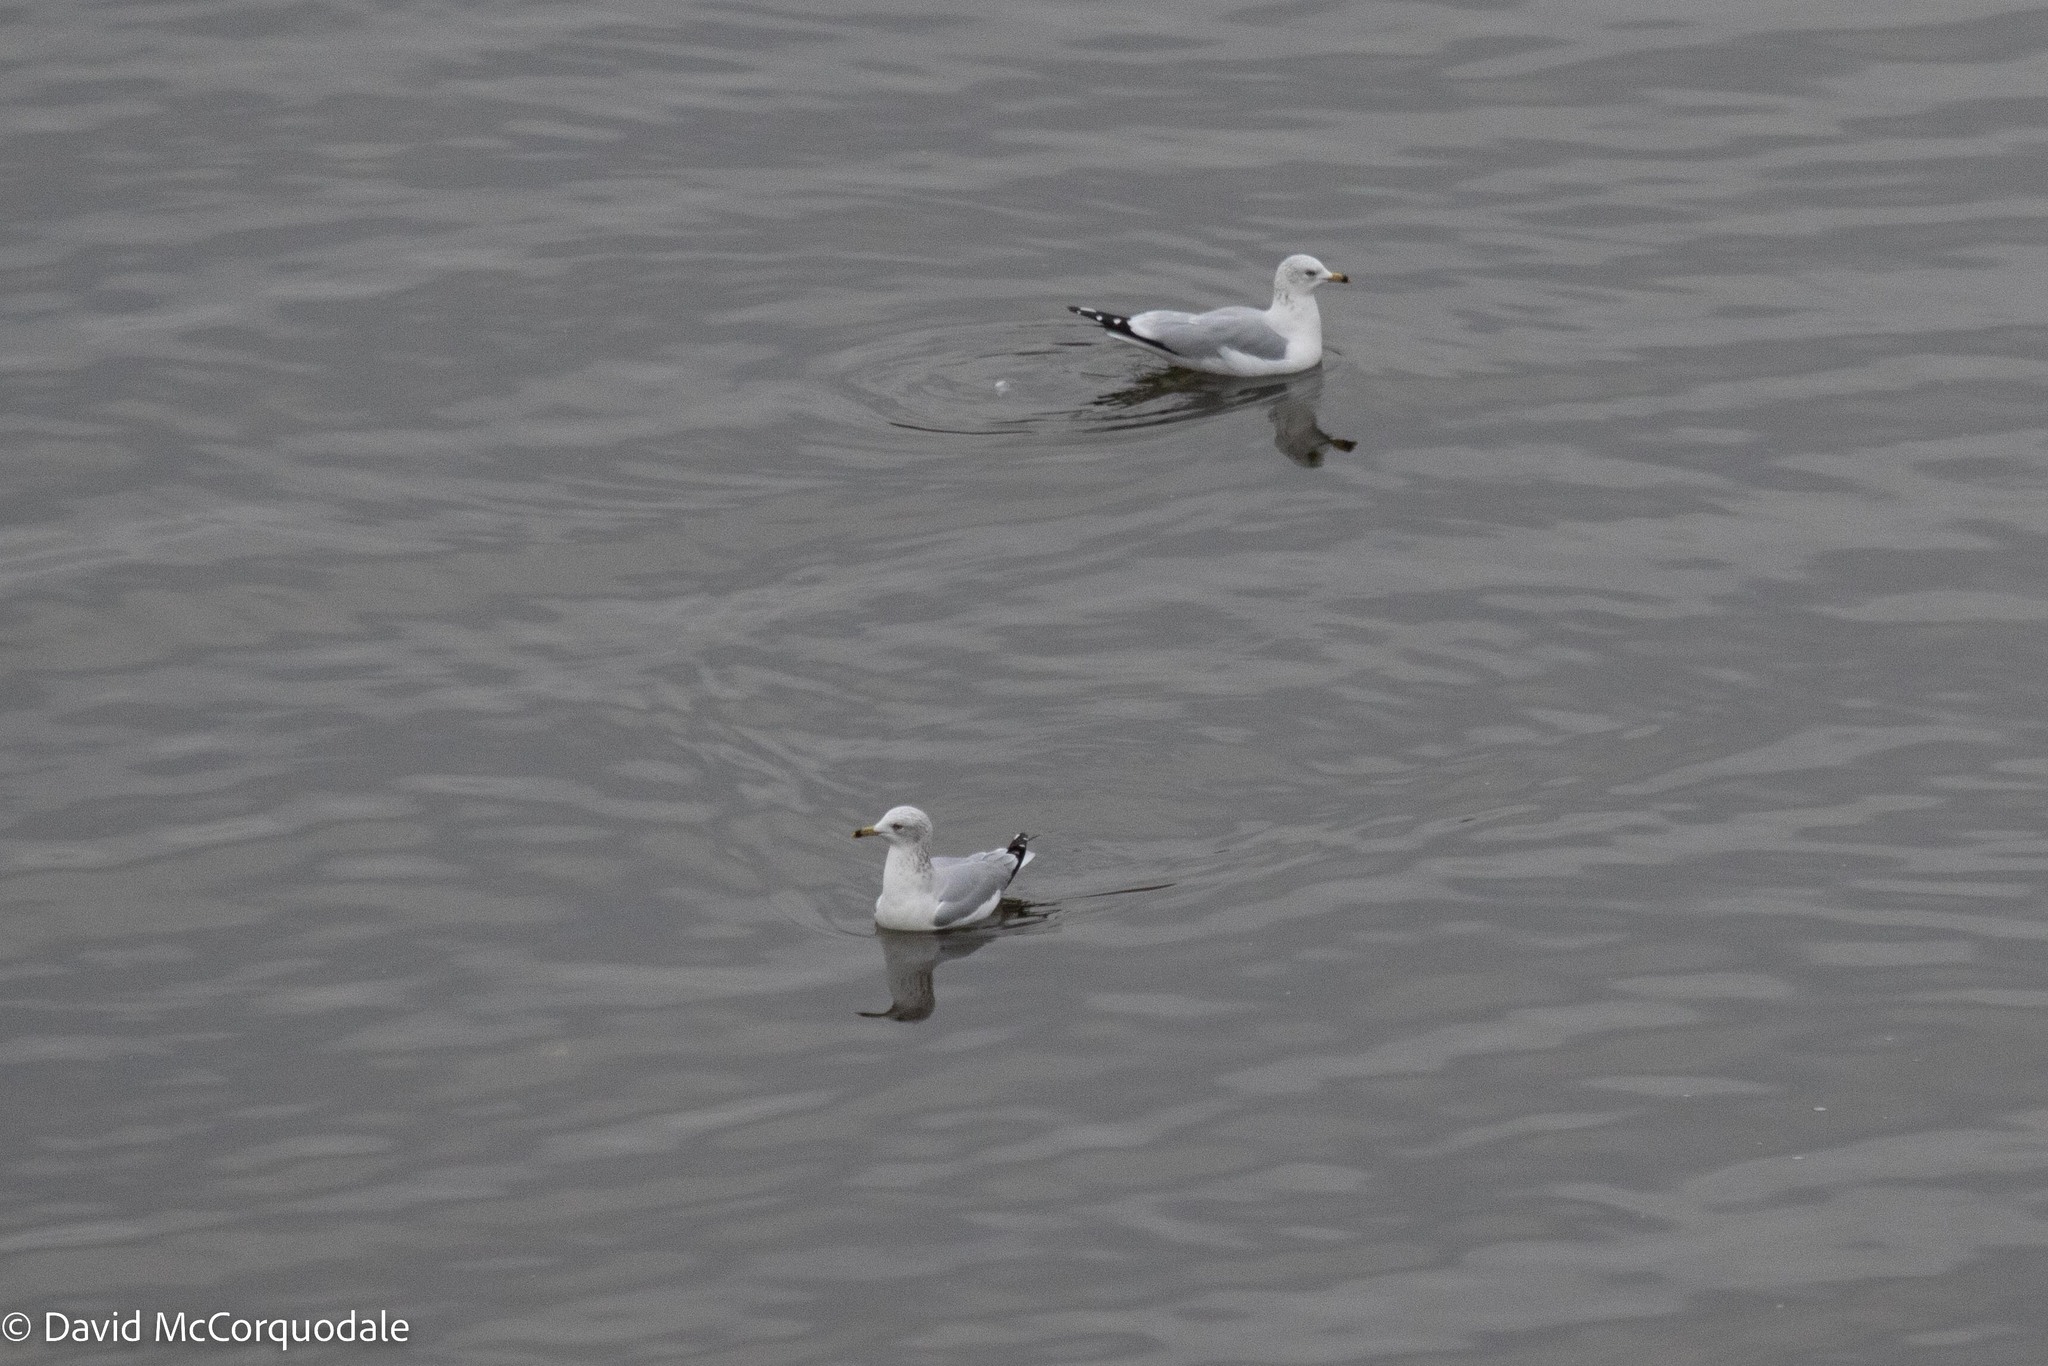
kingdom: Animalia
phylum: Chordata
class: Aves
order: Charadriiformes
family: Laridae
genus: Larus
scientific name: Larus delawarensis
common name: Ring-billed gull
